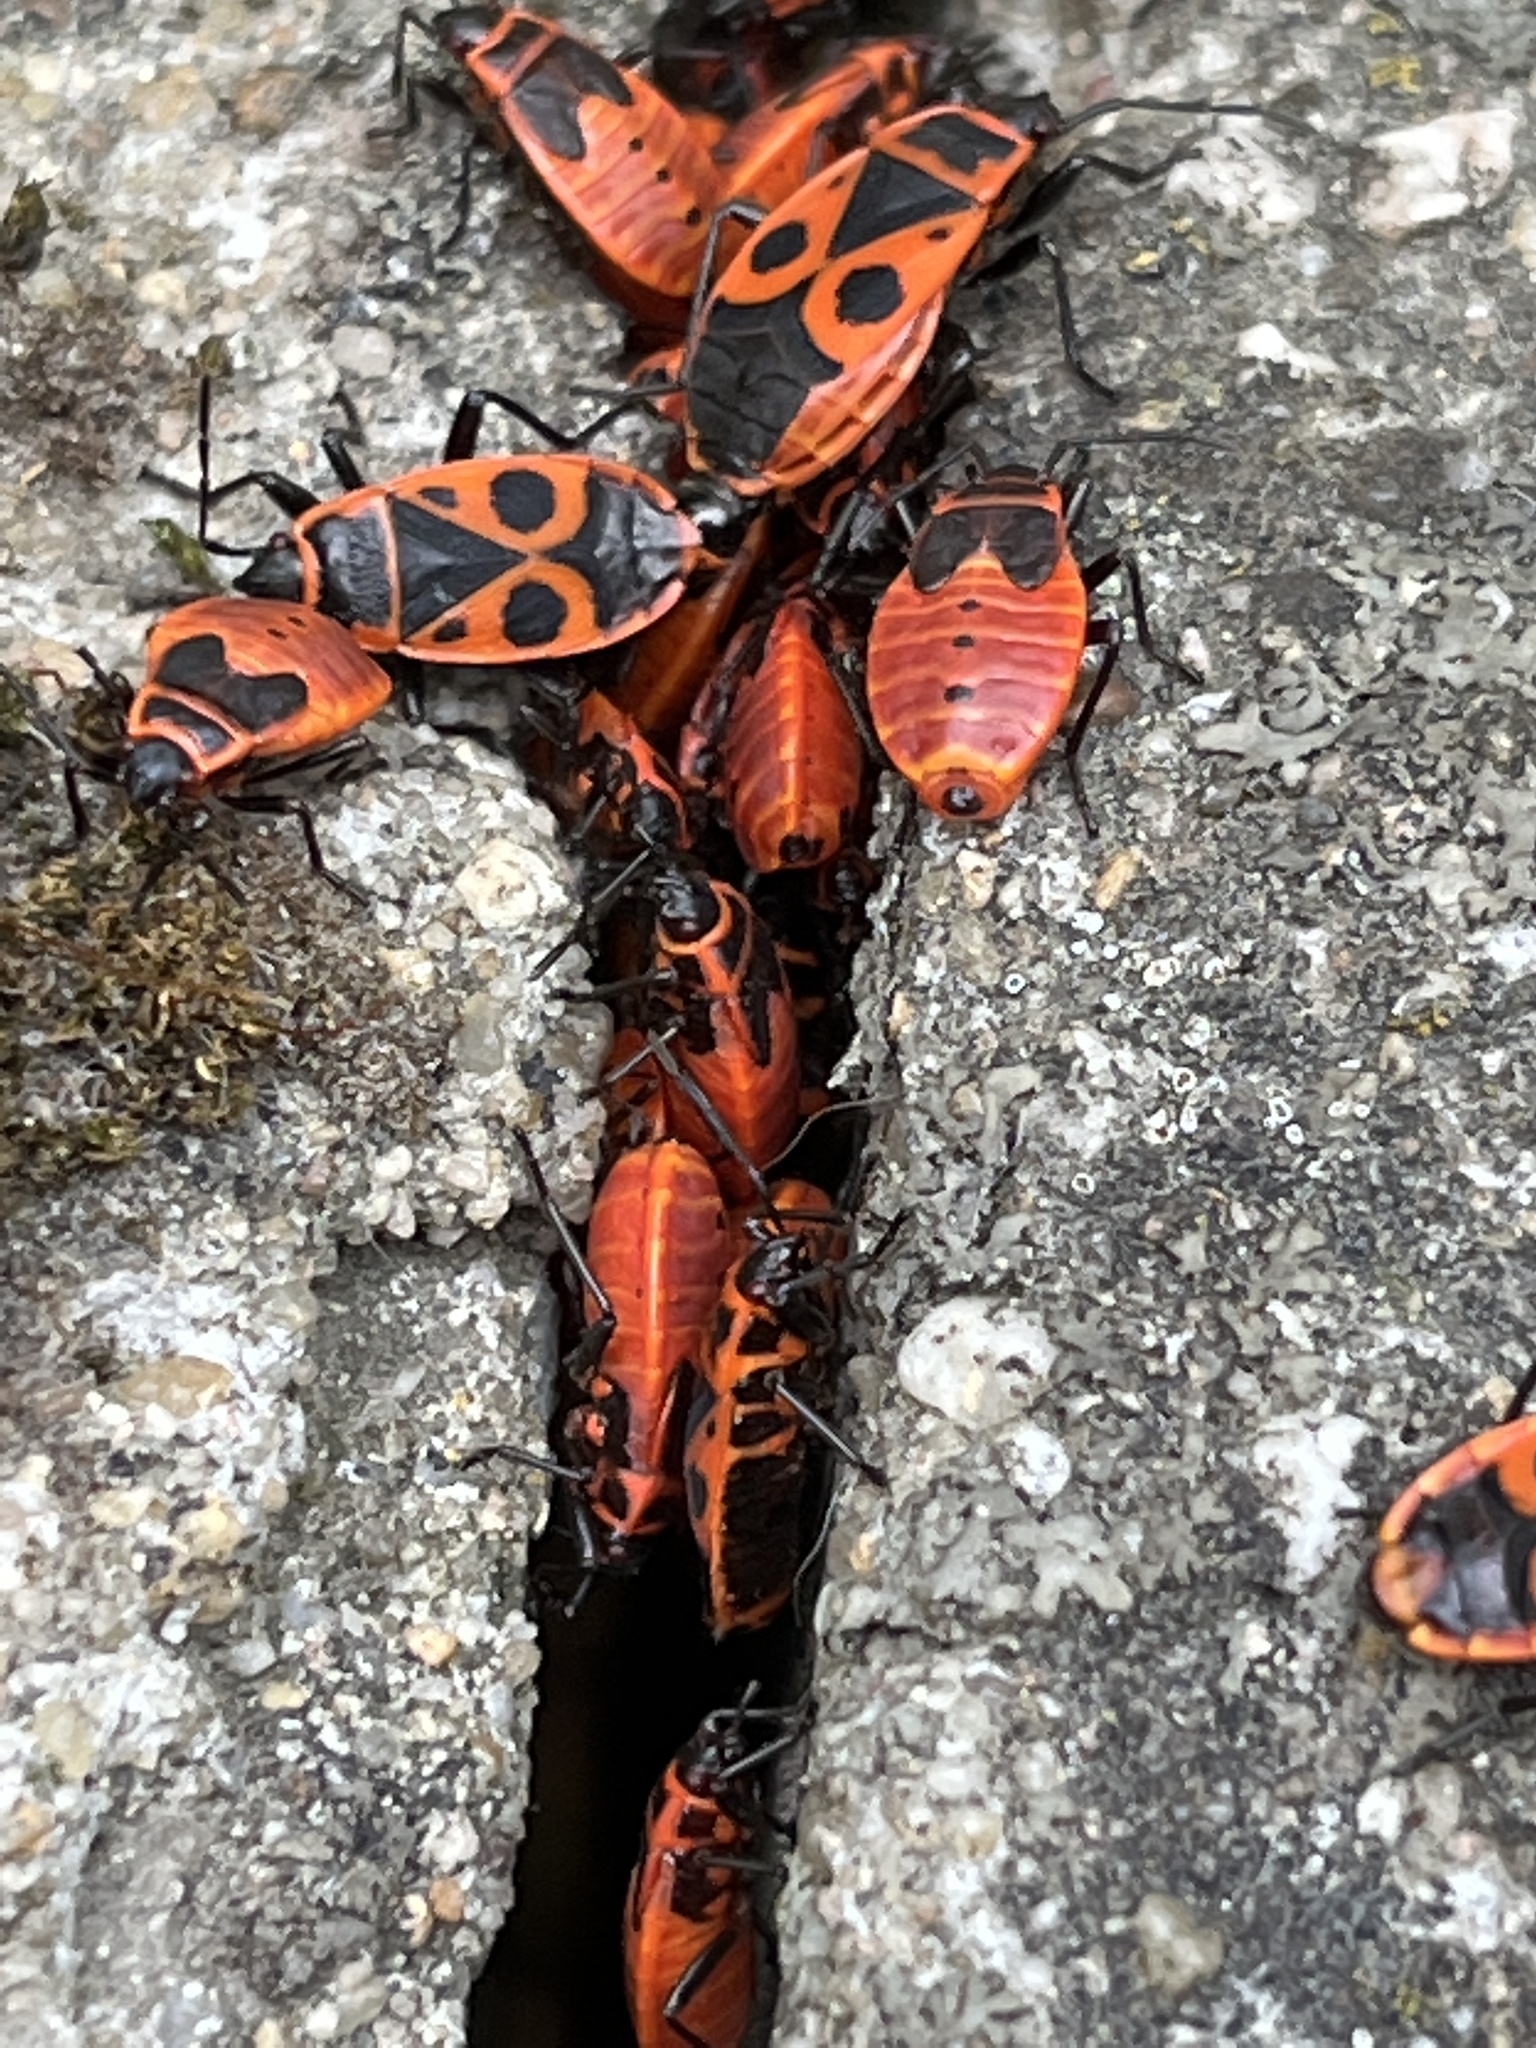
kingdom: Animalia
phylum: Arthropoda
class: Insecta
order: Hemiptera
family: Pyrrhocoridae
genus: Pyrrhocoris
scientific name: Pyrrhocoris apterus
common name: Firebug
